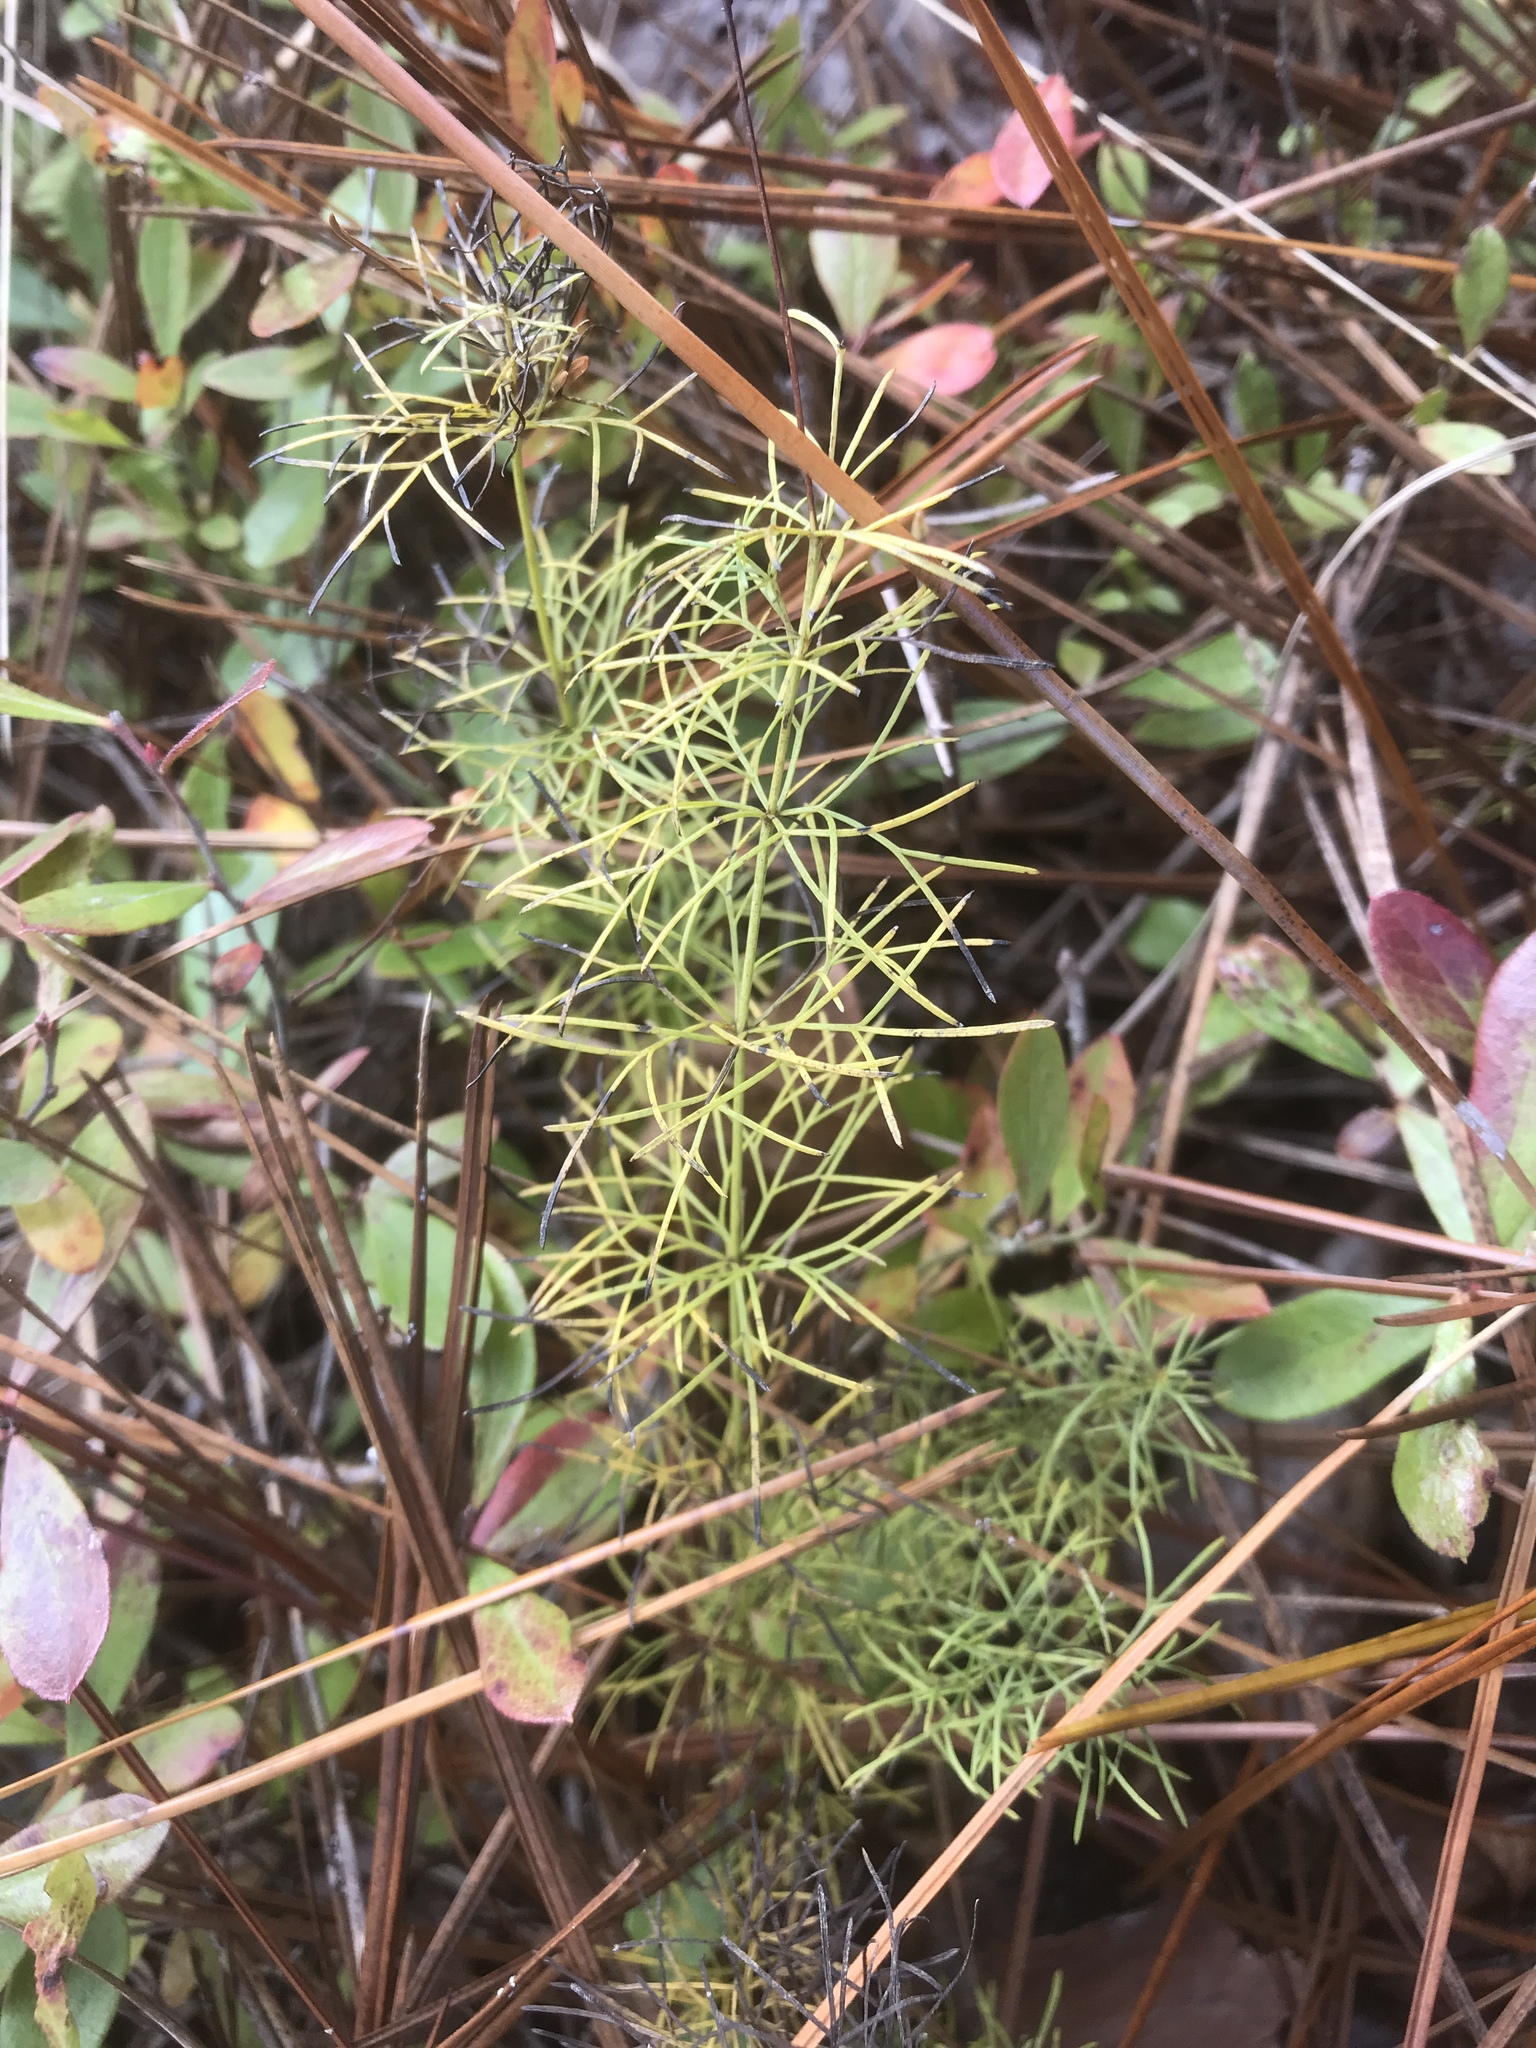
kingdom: Plantae
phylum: Tracheophyta
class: Magnoliopsida
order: Asterales
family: Asteraceae
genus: Coreopsis
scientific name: Coreopsis verticillata
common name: Whorled tickseed
